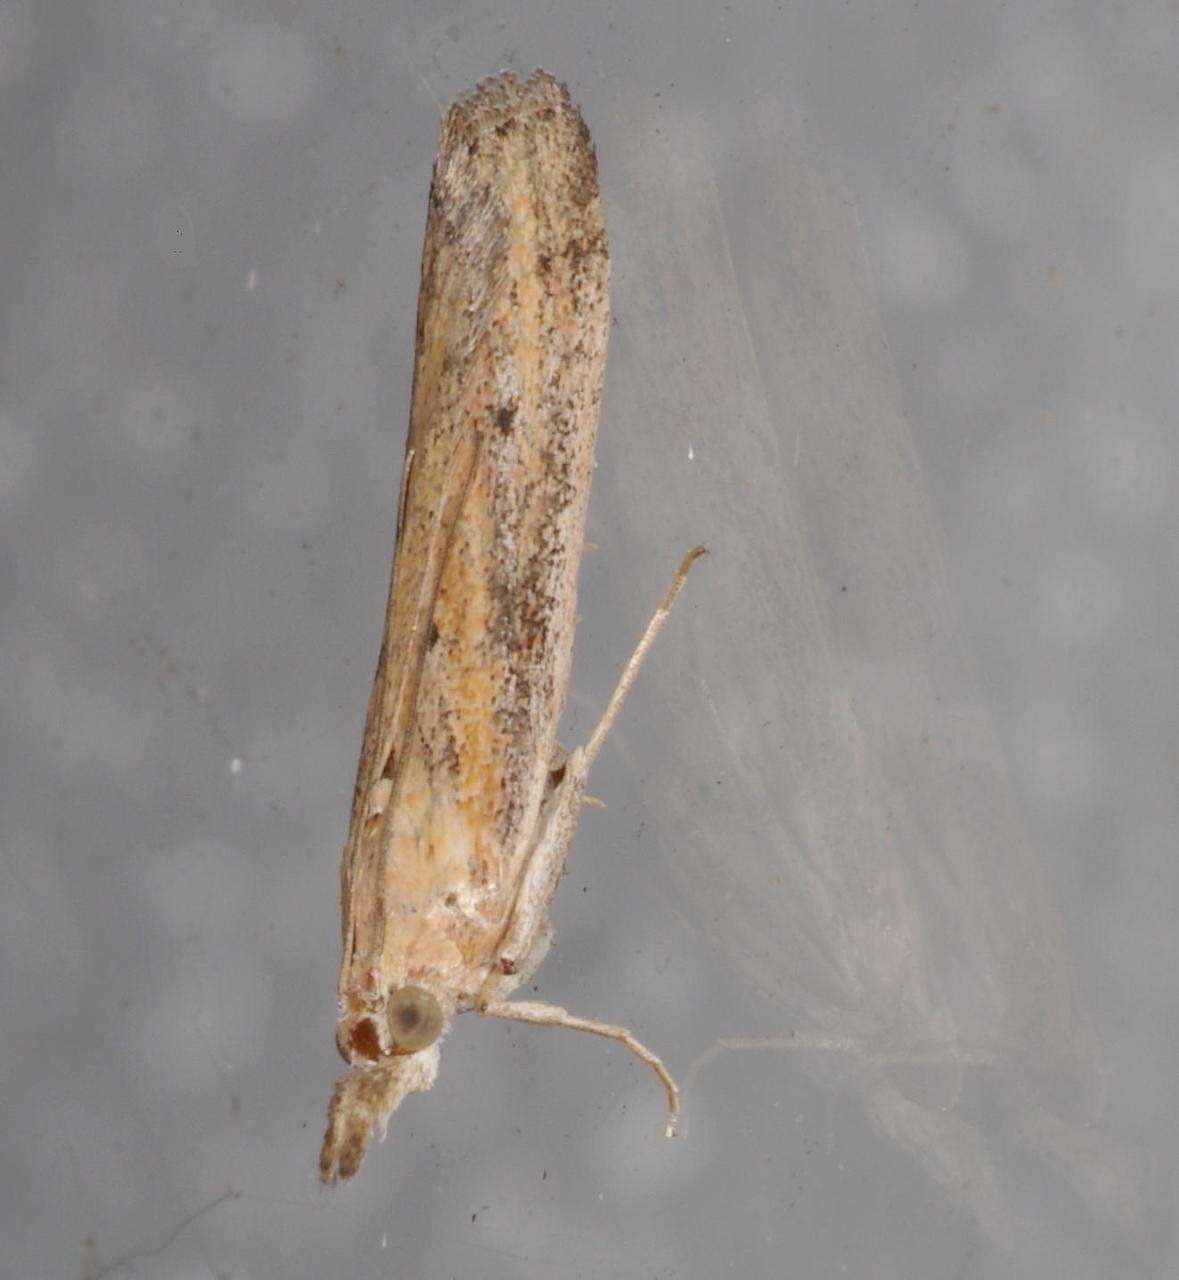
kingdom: Animalia
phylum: Arthropoda
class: Insecta
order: Lepidoptera
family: Pyralidae
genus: Faveria
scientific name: Faveria tritalis
